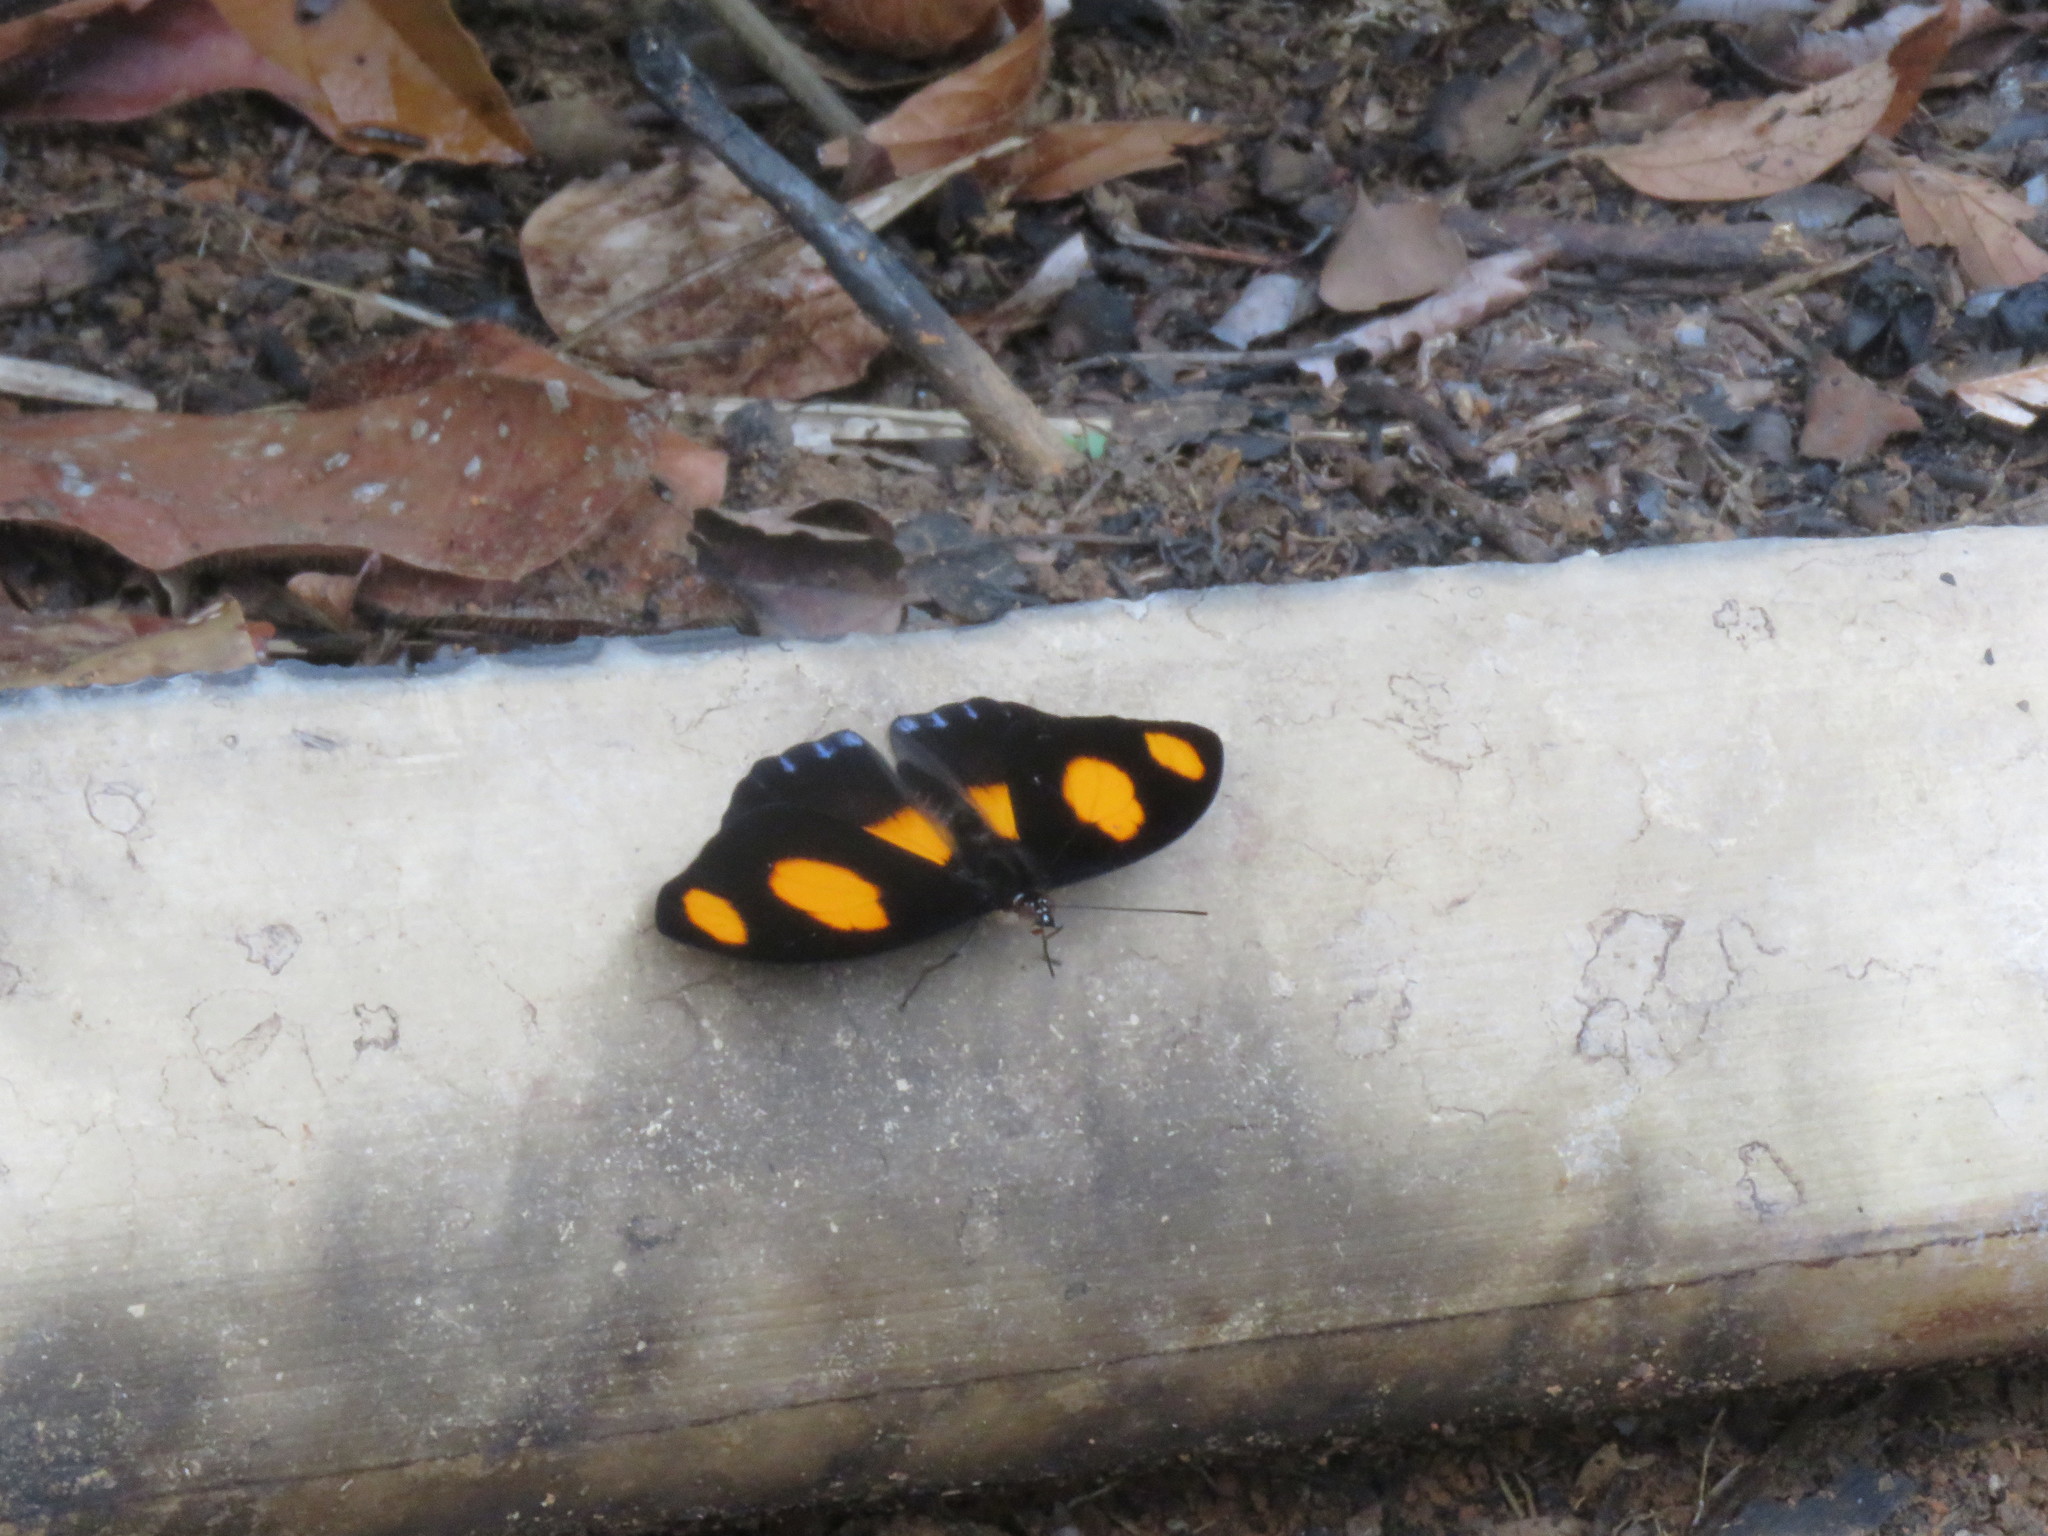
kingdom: Animalia
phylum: Arthropoda
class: Insecta
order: Lepidoptera
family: Nymphalidae
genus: Catonephele
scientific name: Catonephele numilia
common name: Blue-frosted banner
